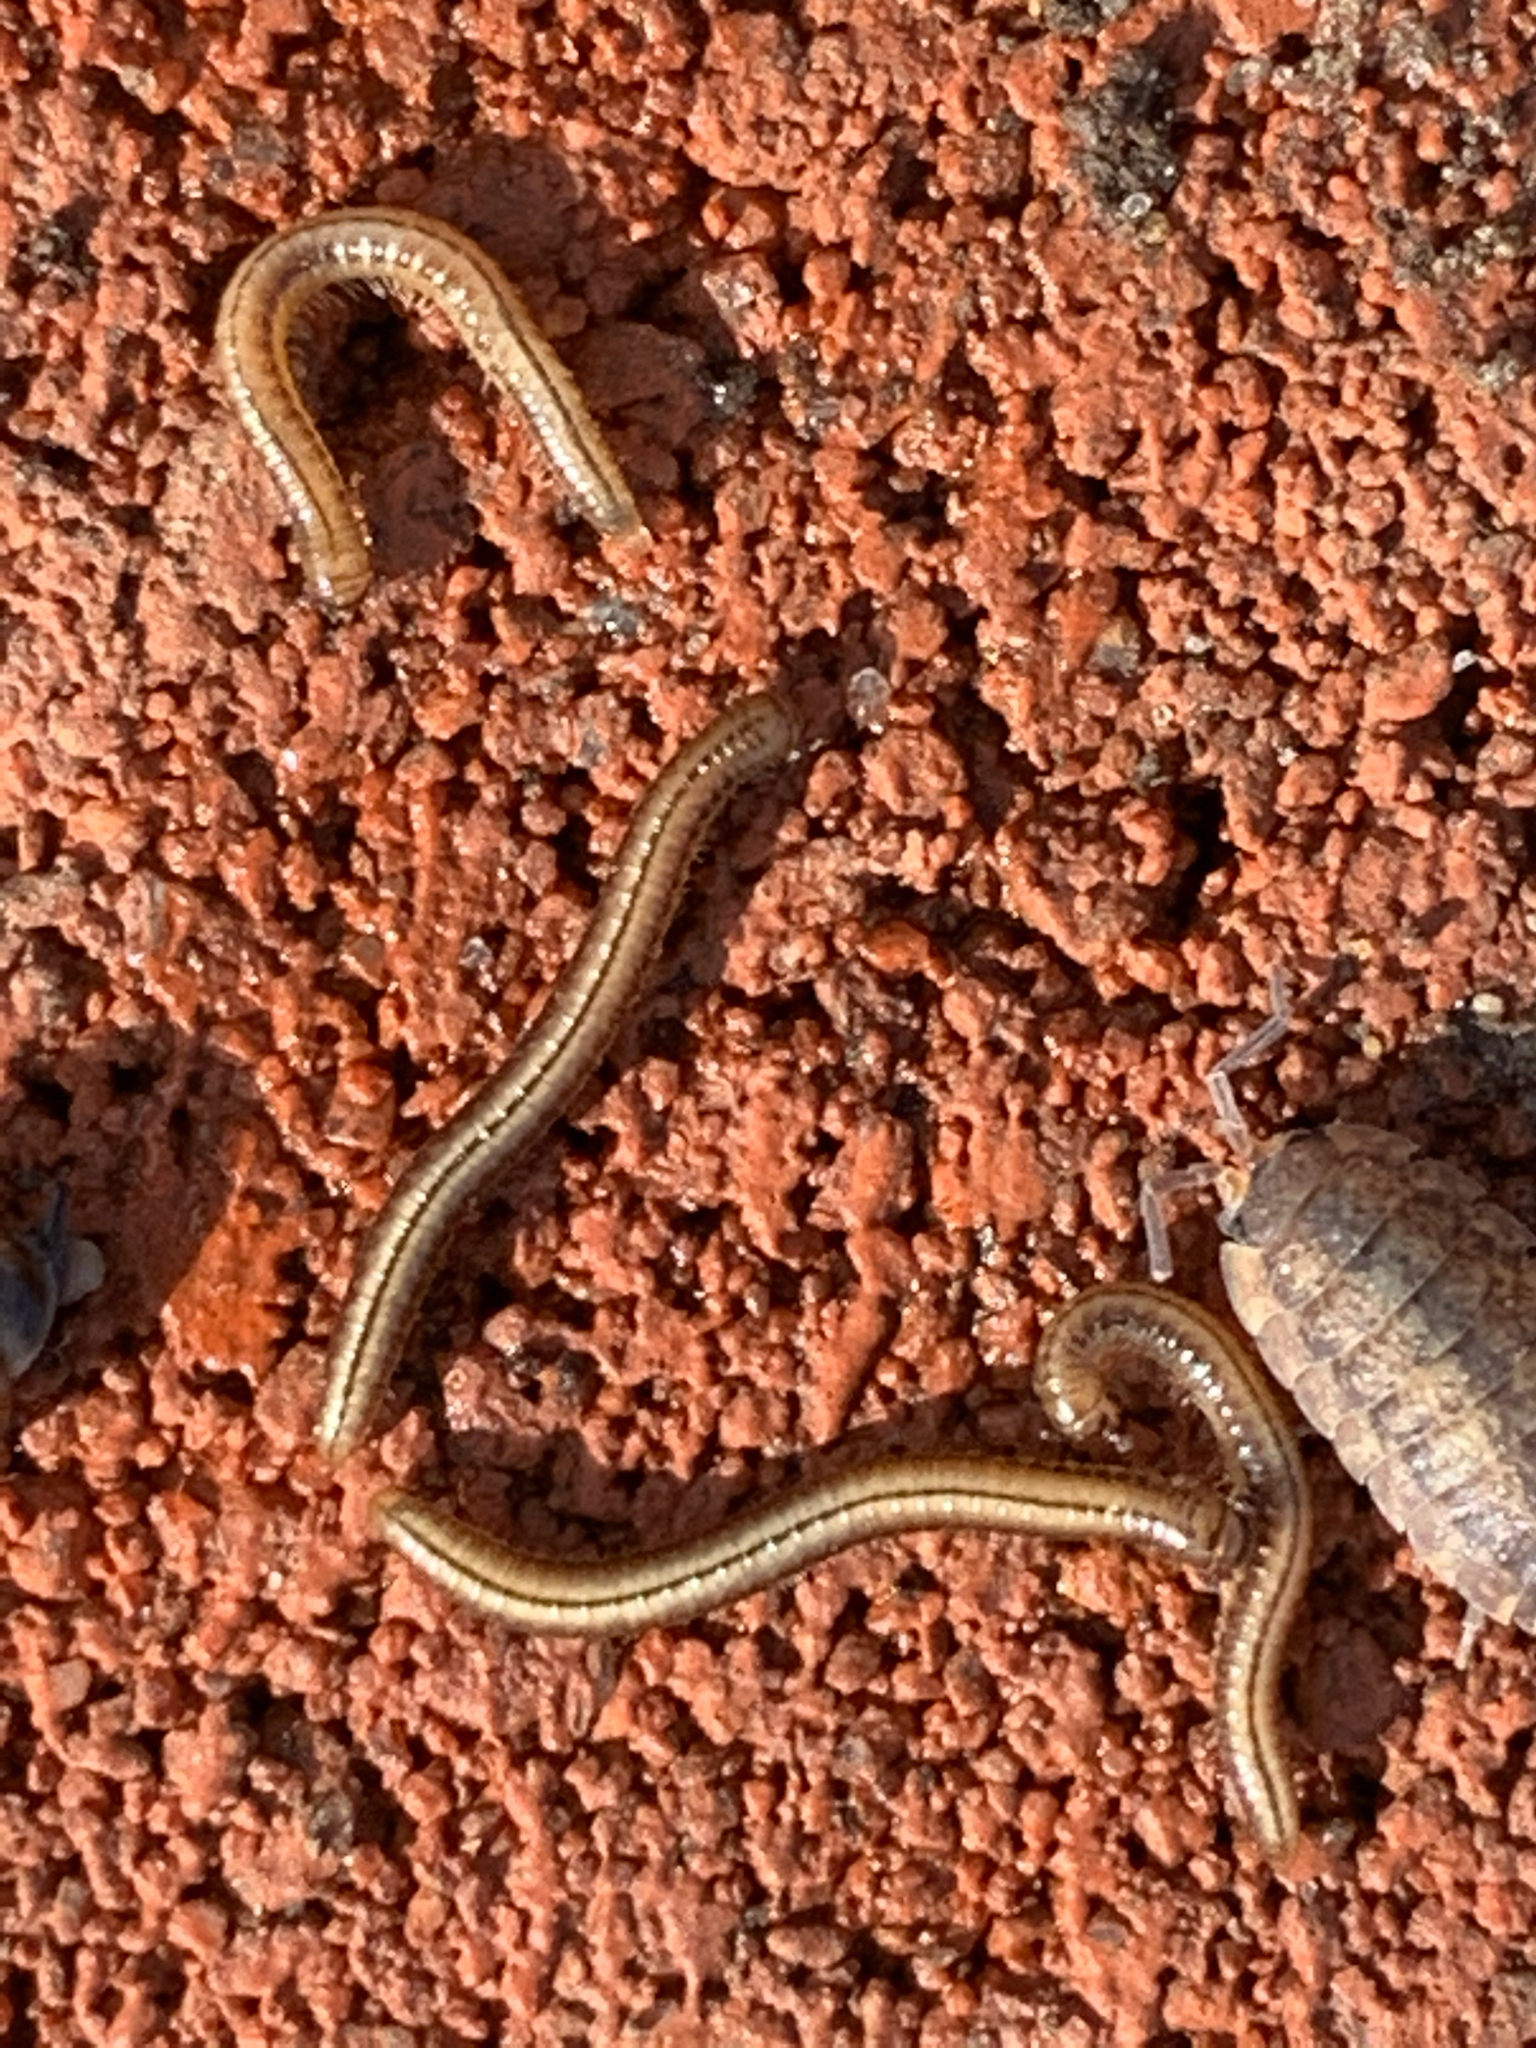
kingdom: Animalia
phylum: Arthropoda
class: Diplopoda
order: Julida
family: Julidae
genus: Brachyiulus
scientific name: Brachyiulus
